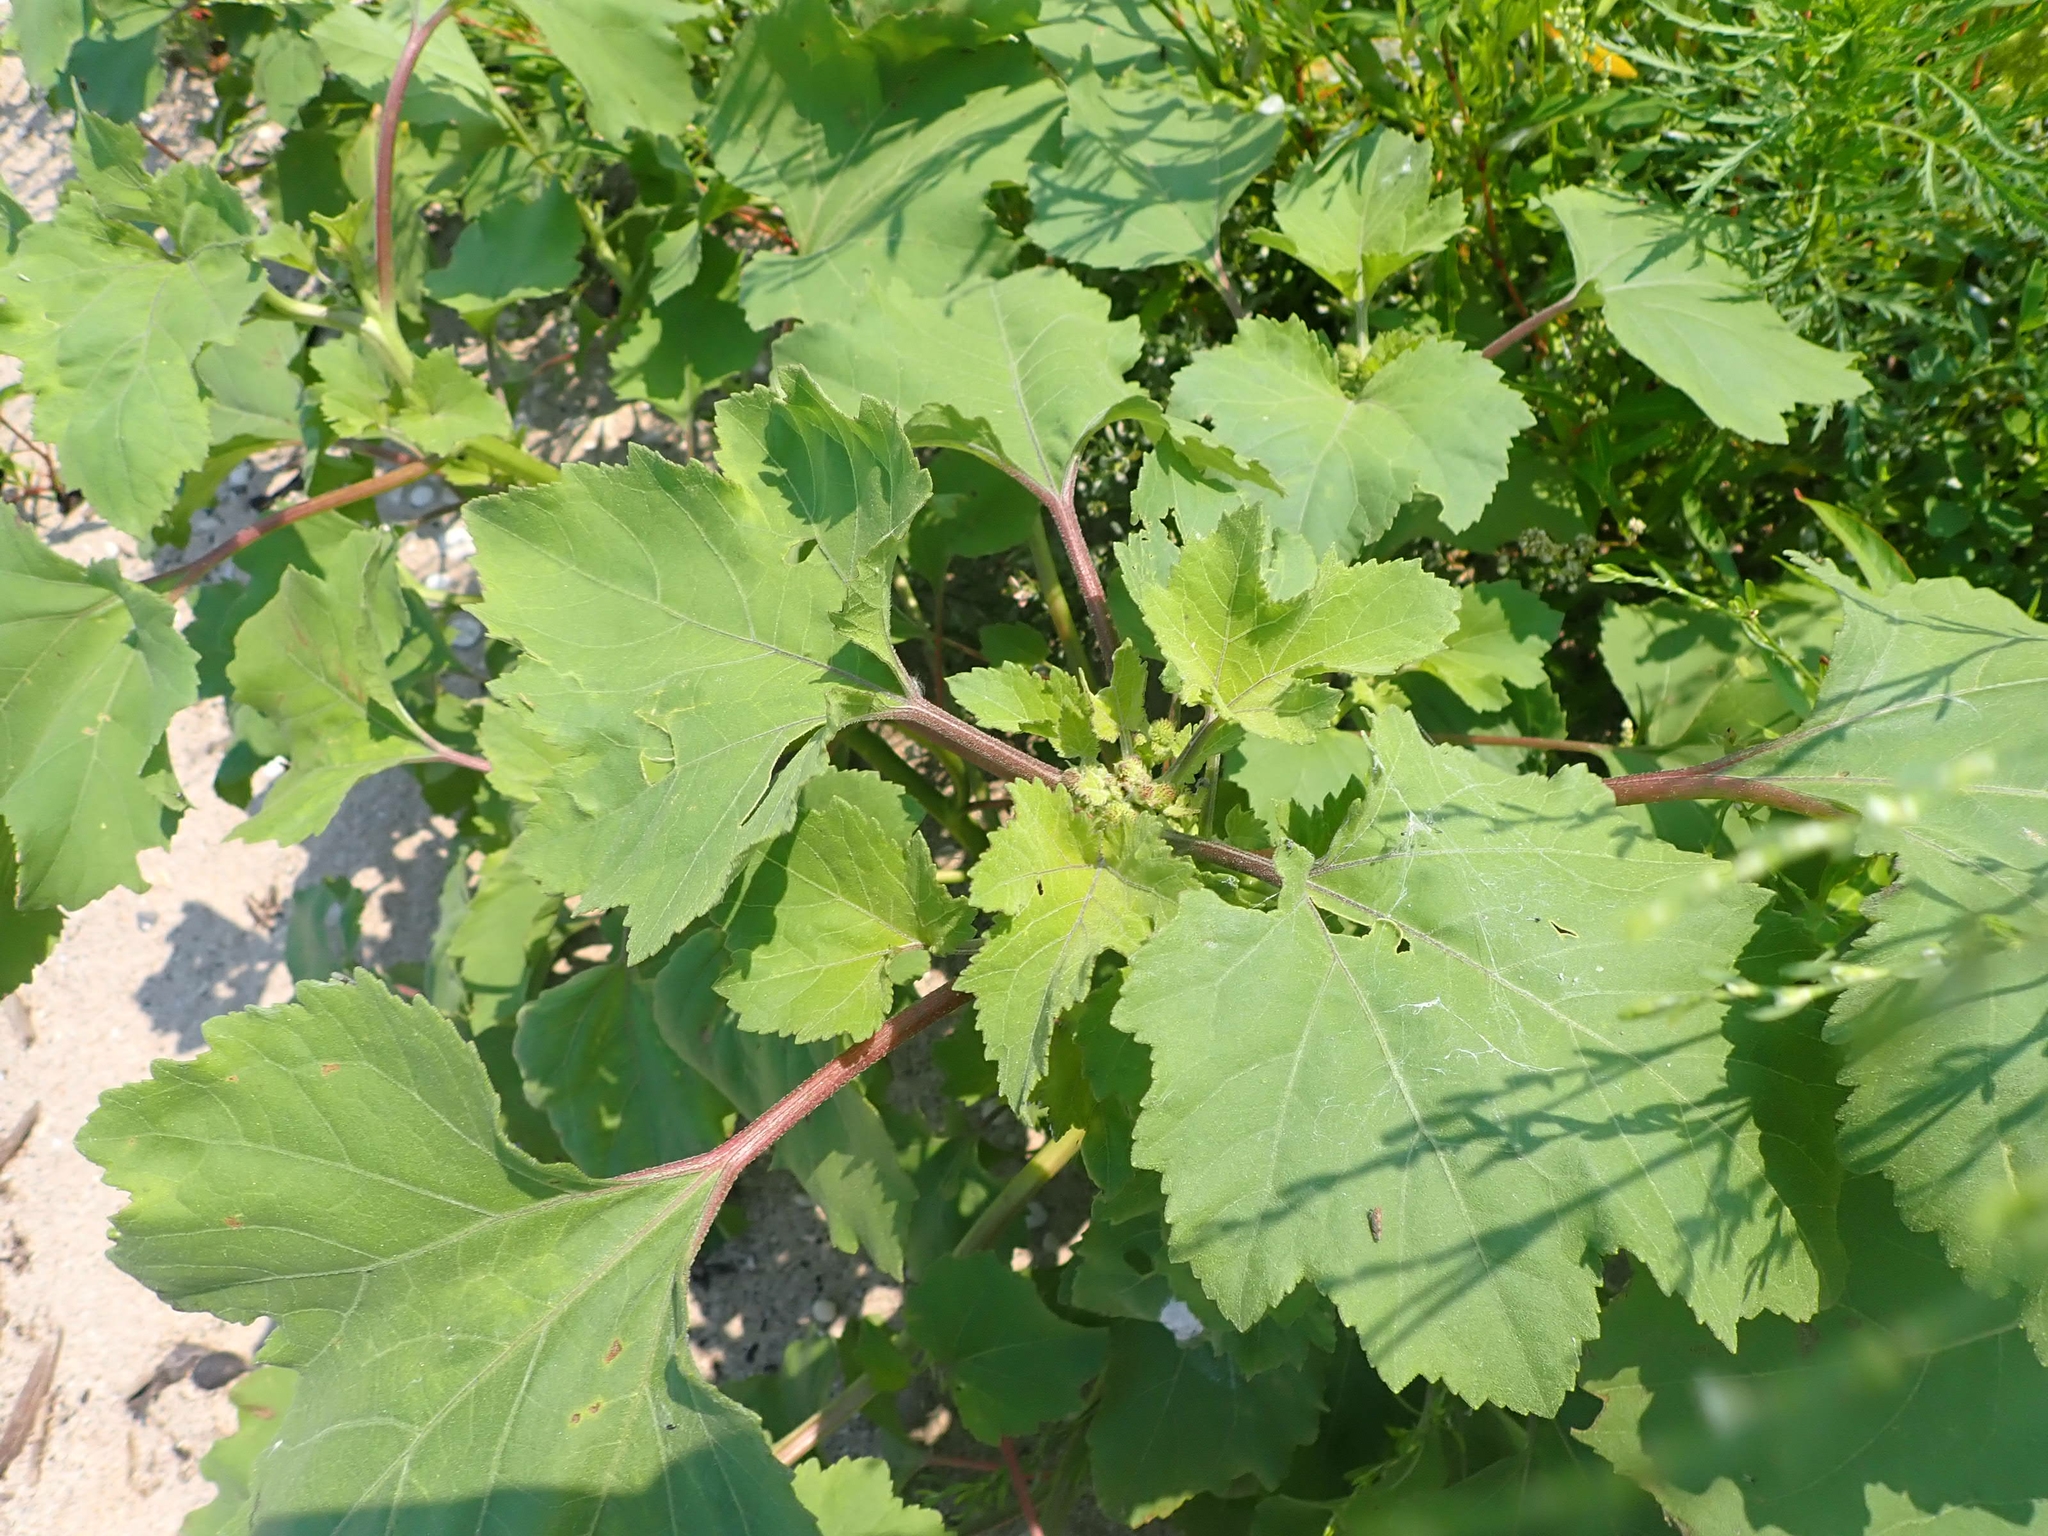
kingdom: Plantae
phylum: Tracheophyta
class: Magnoliopsida
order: Asterales
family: Asteraceae
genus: Xanthium
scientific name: Xanthium strumarium
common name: Rough cocklebur
